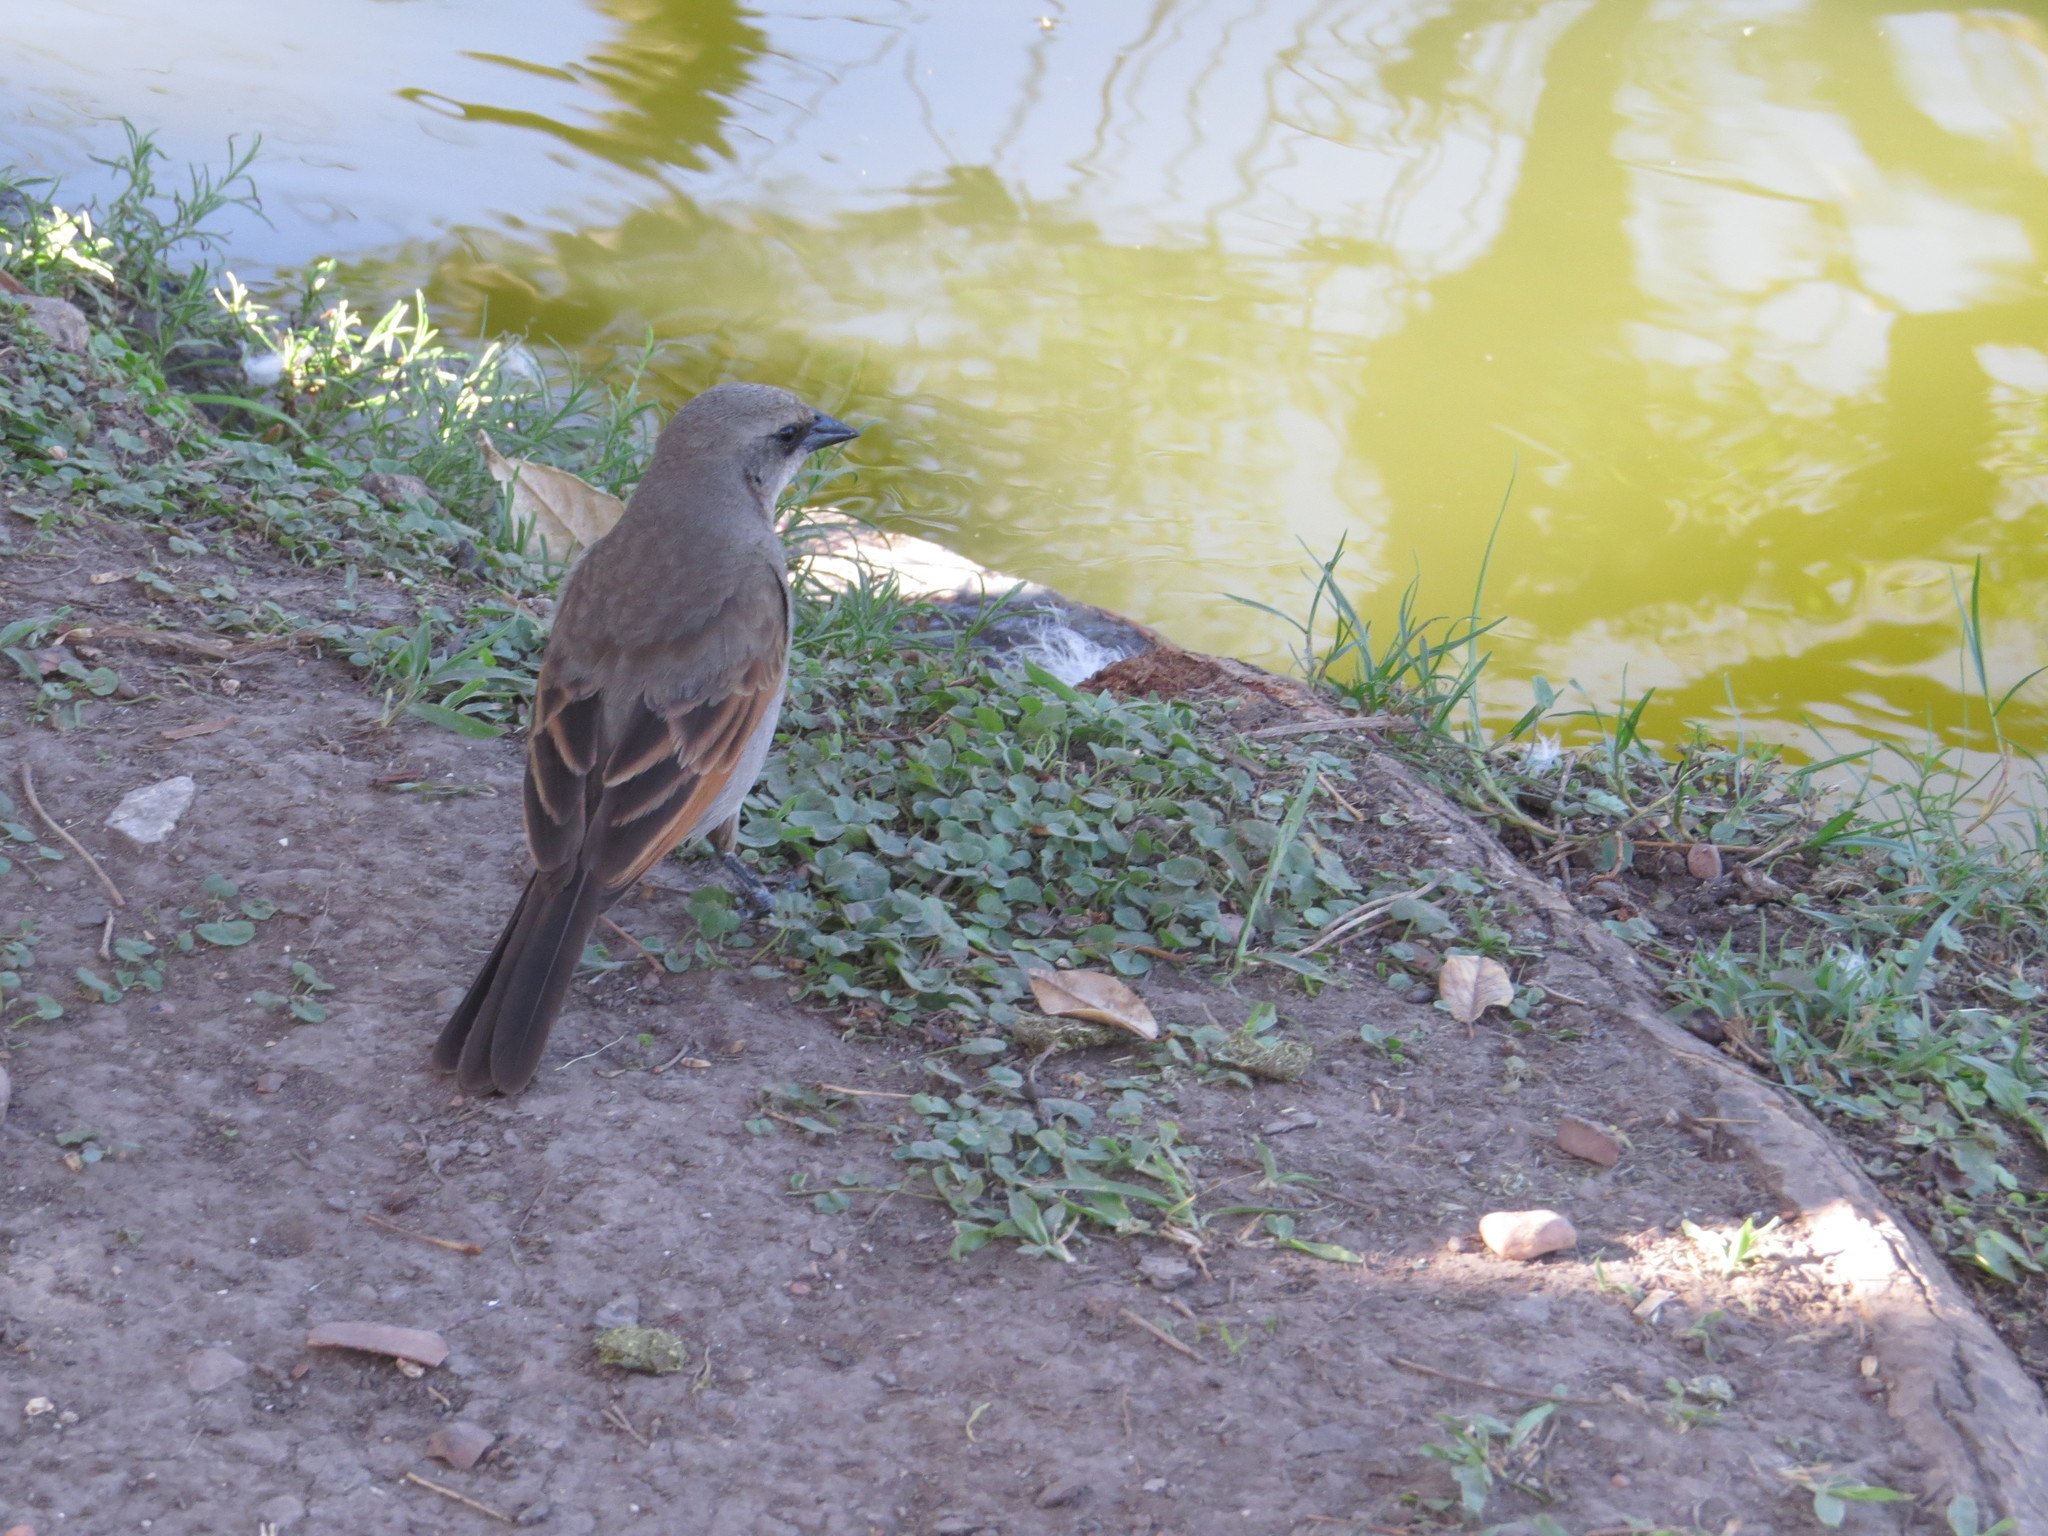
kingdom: Animalia
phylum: Chordata
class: Aves
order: Passeriformes
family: Icteridae
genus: Agelaioides
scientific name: Agelaioides badius
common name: Baywing
